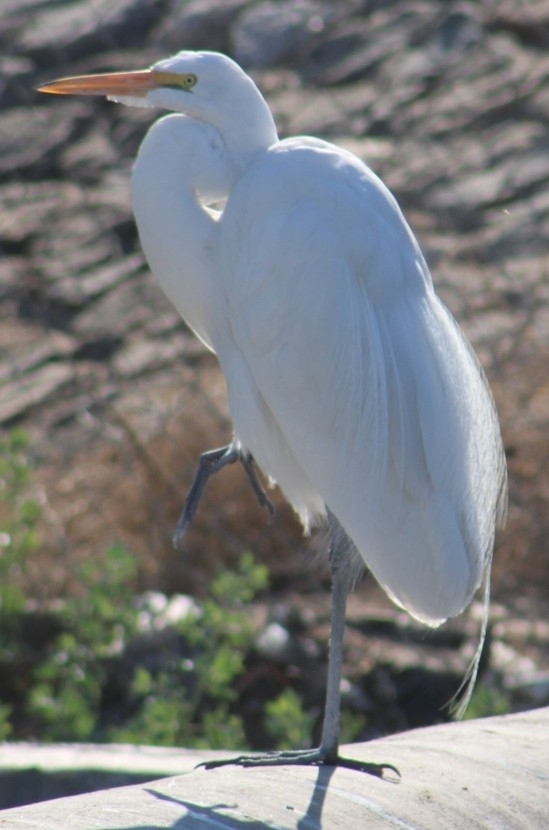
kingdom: Animalia
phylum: Chordata
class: Aves
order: Pelecaniformes
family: Ardeidae
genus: Ardea
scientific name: Ardea alba
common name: Great egret
